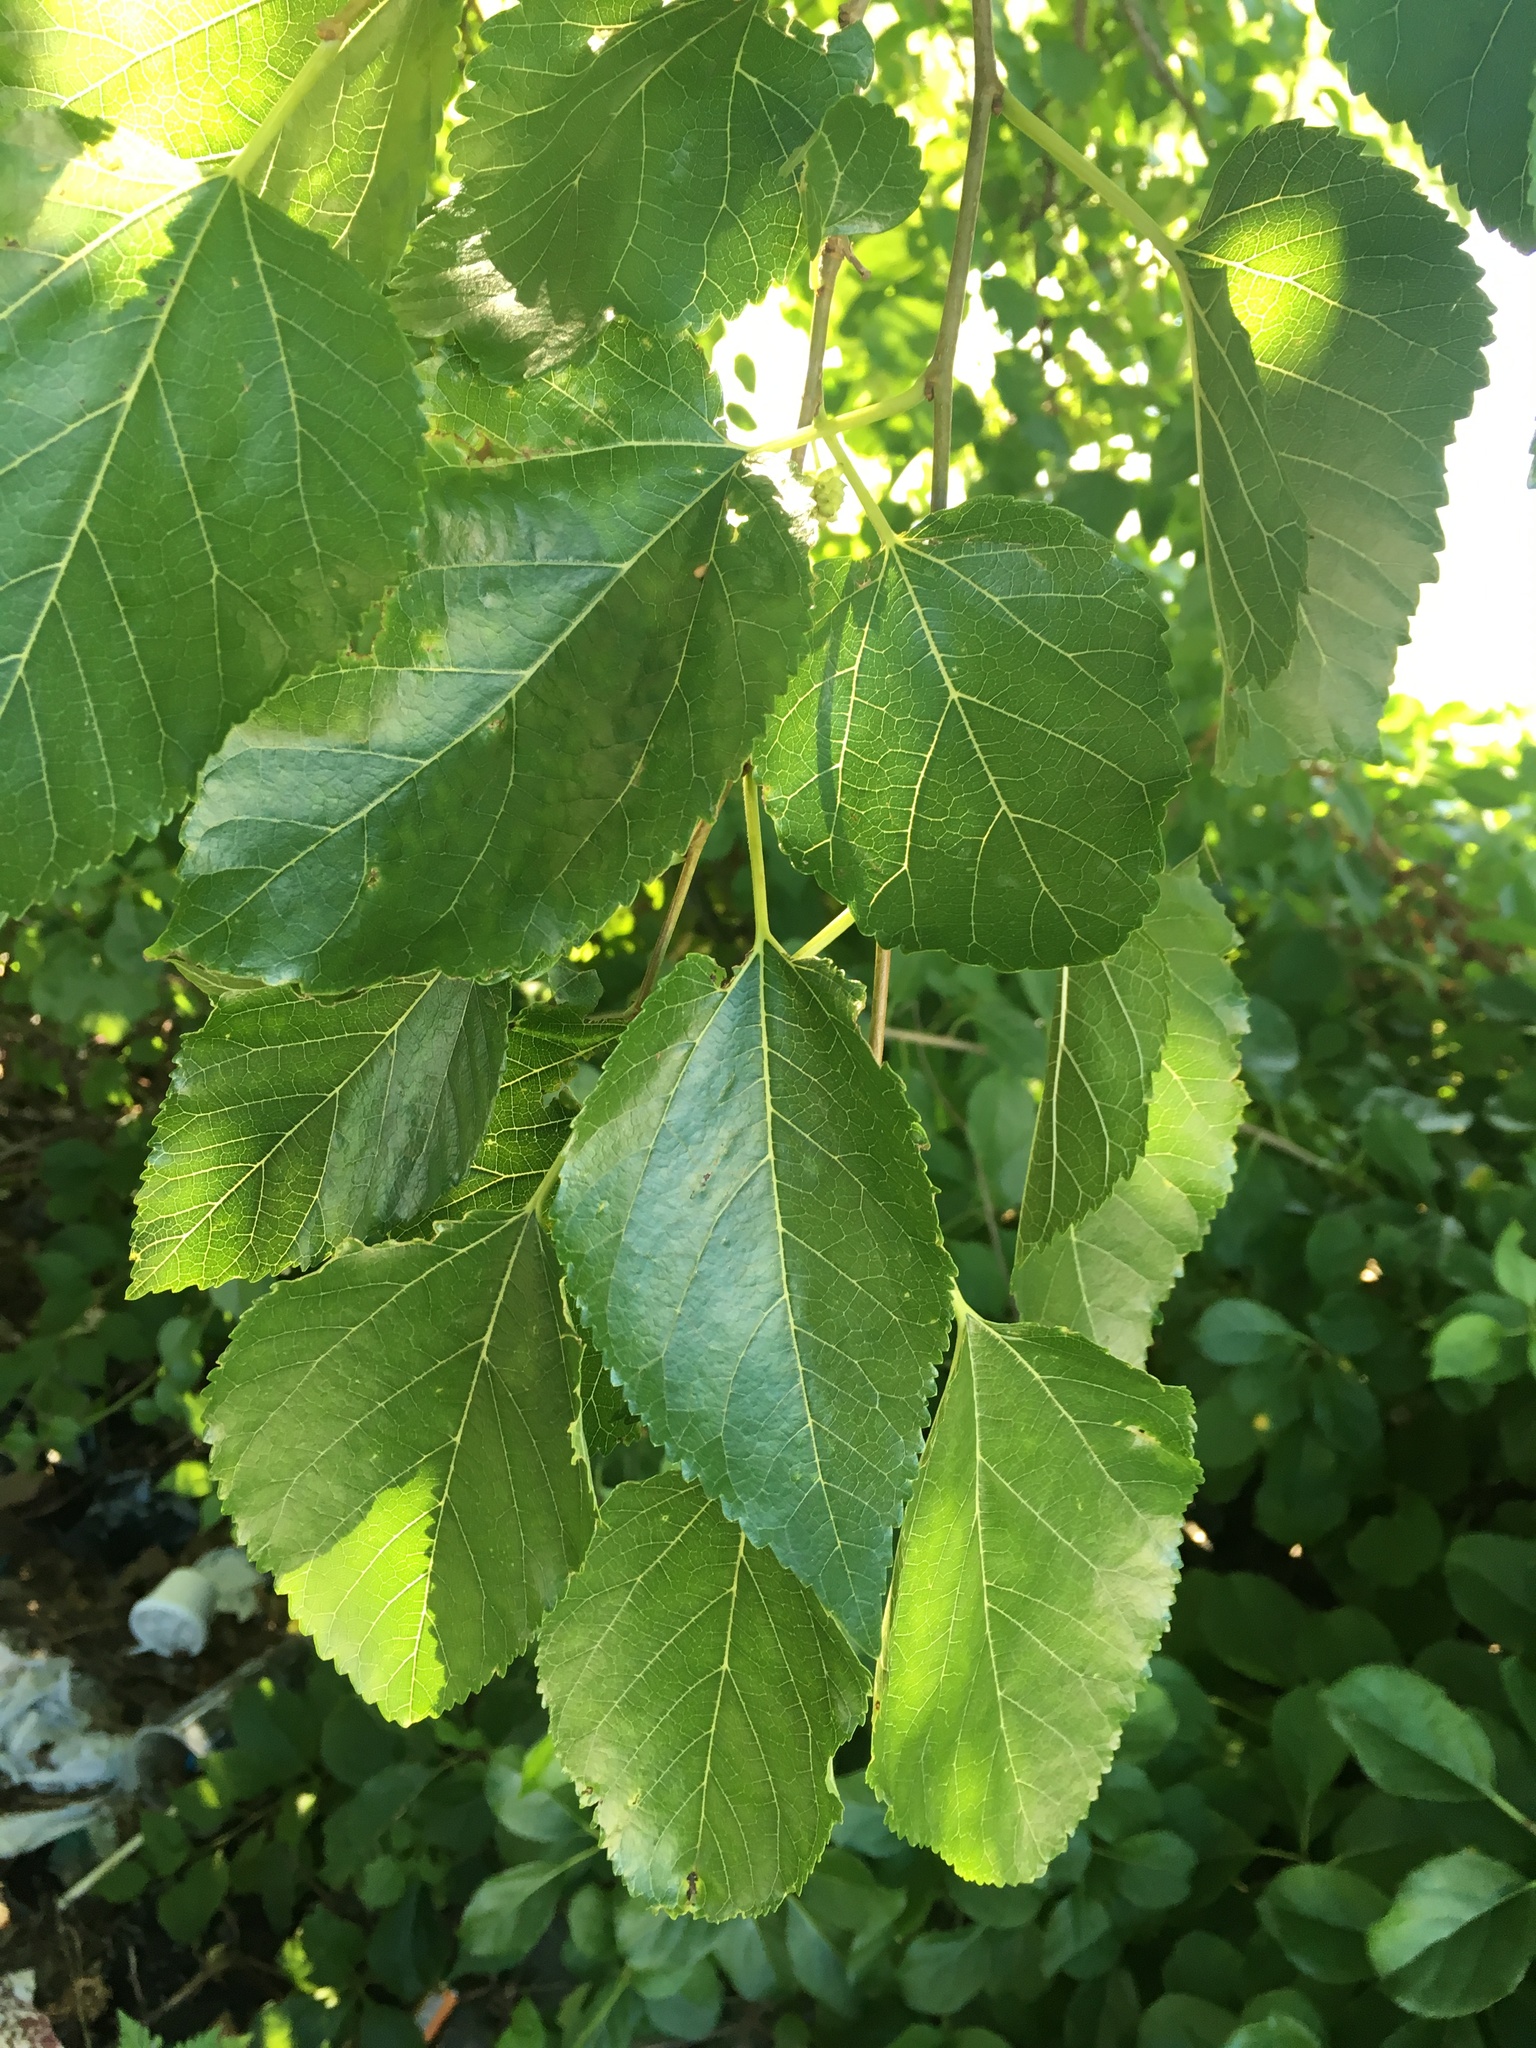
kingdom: Plantae
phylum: Tracheophyta
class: Magnoliopsida
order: Rosales
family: Moraceae
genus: Morus
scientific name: Morus alba
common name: White mulberry
